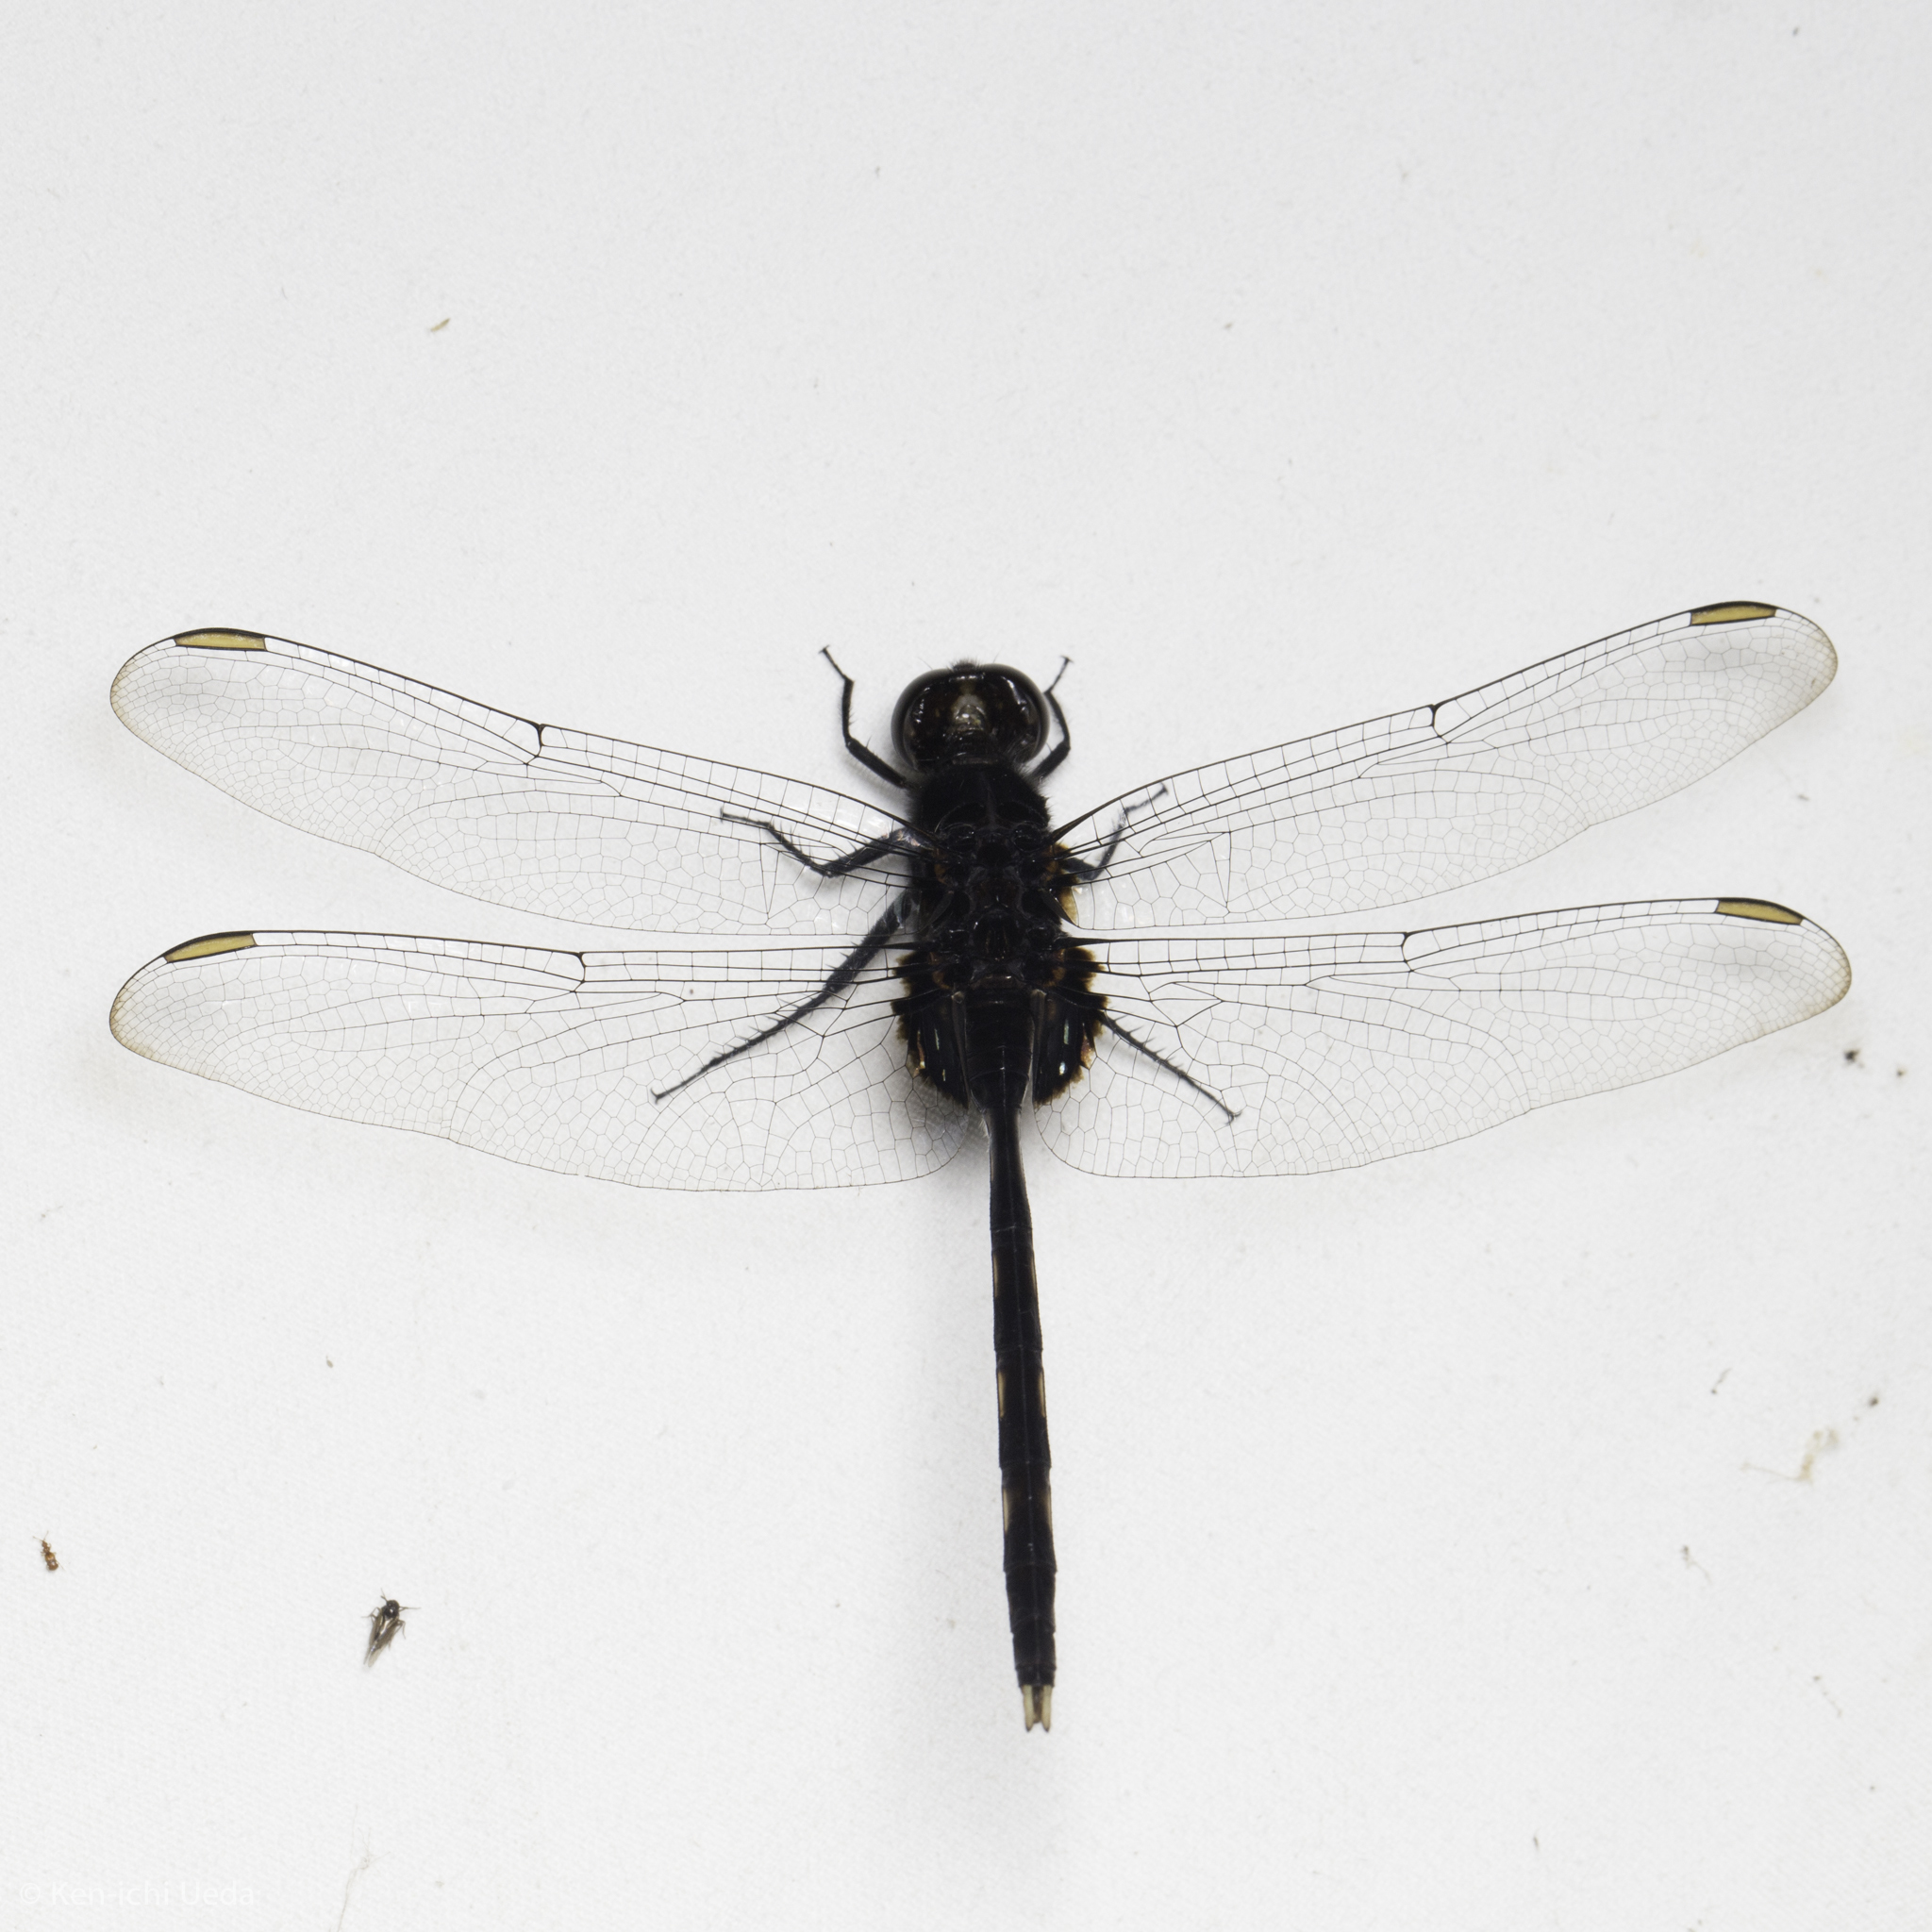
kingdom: Animalia
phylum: Arthropoda
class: Insecta
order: Odonata
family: Libellulidae
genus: Erythemis
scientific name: Erythemis plebeja
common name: Pin-tailed pondhawk
